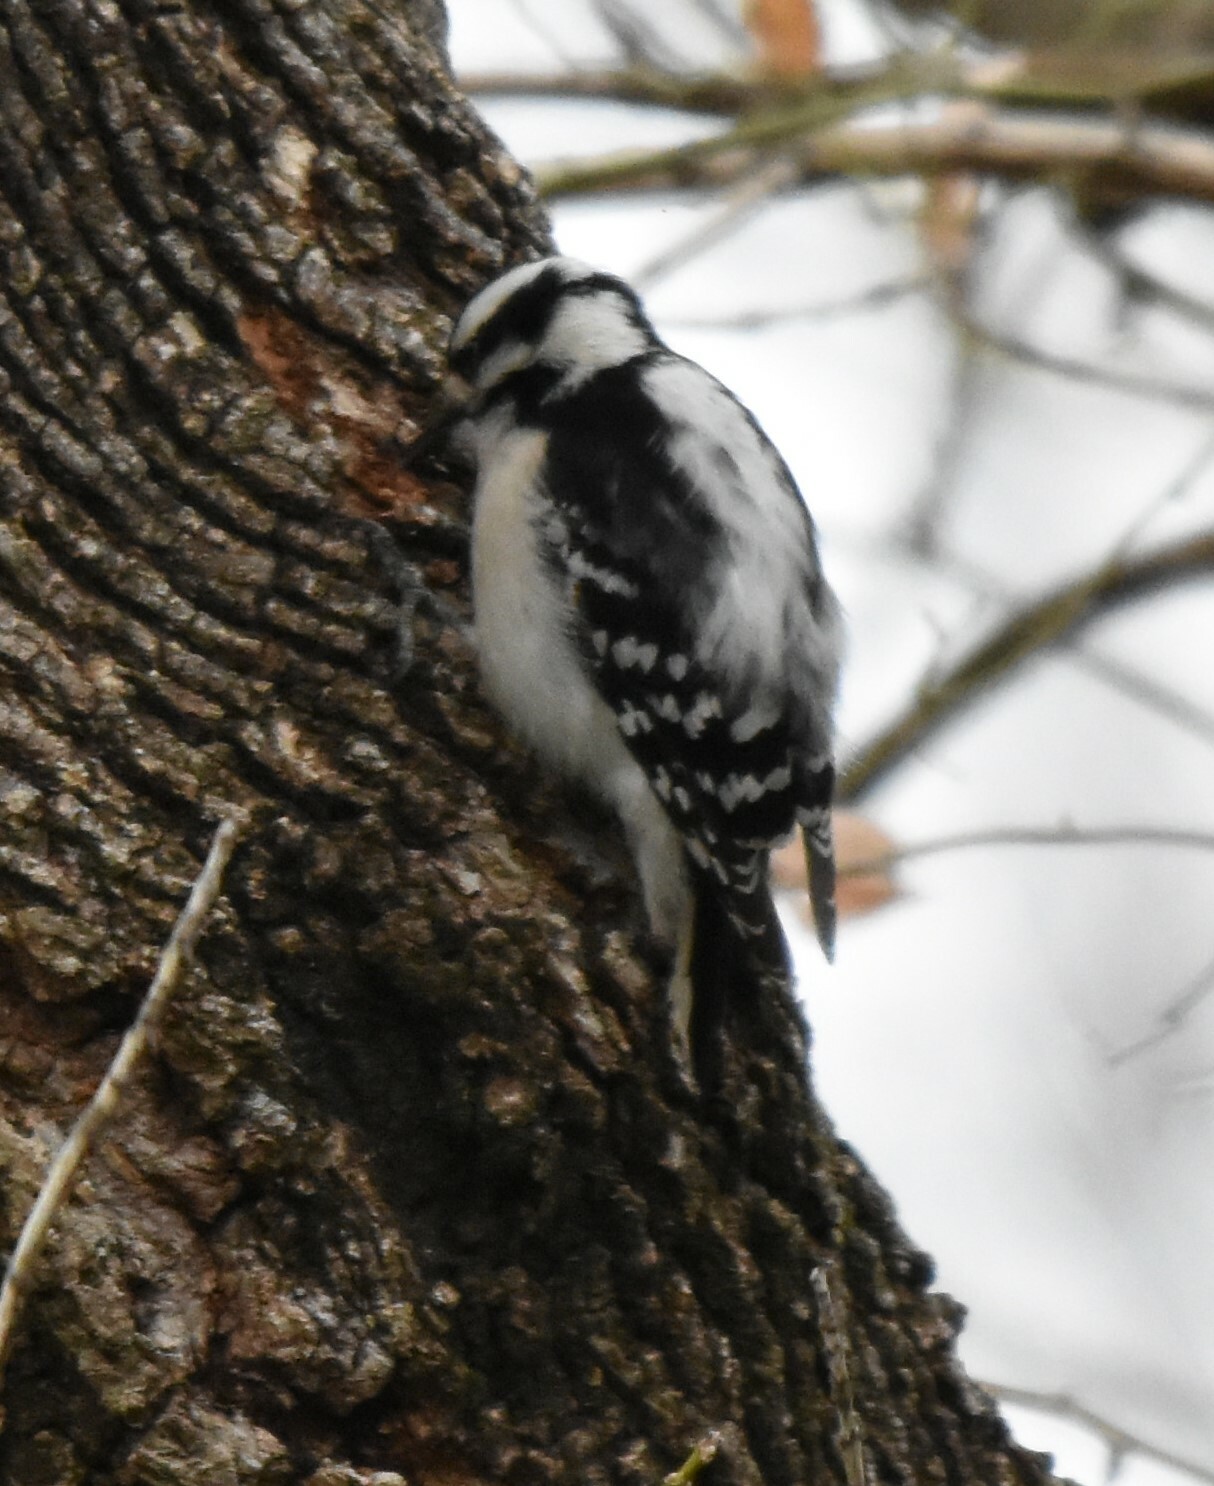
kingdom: Animalia
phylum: Chordata
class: Aves
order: Piciformes
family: Picidae
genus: Dryobates
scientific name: Dryobates pubescens
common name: Downy woodpecker
